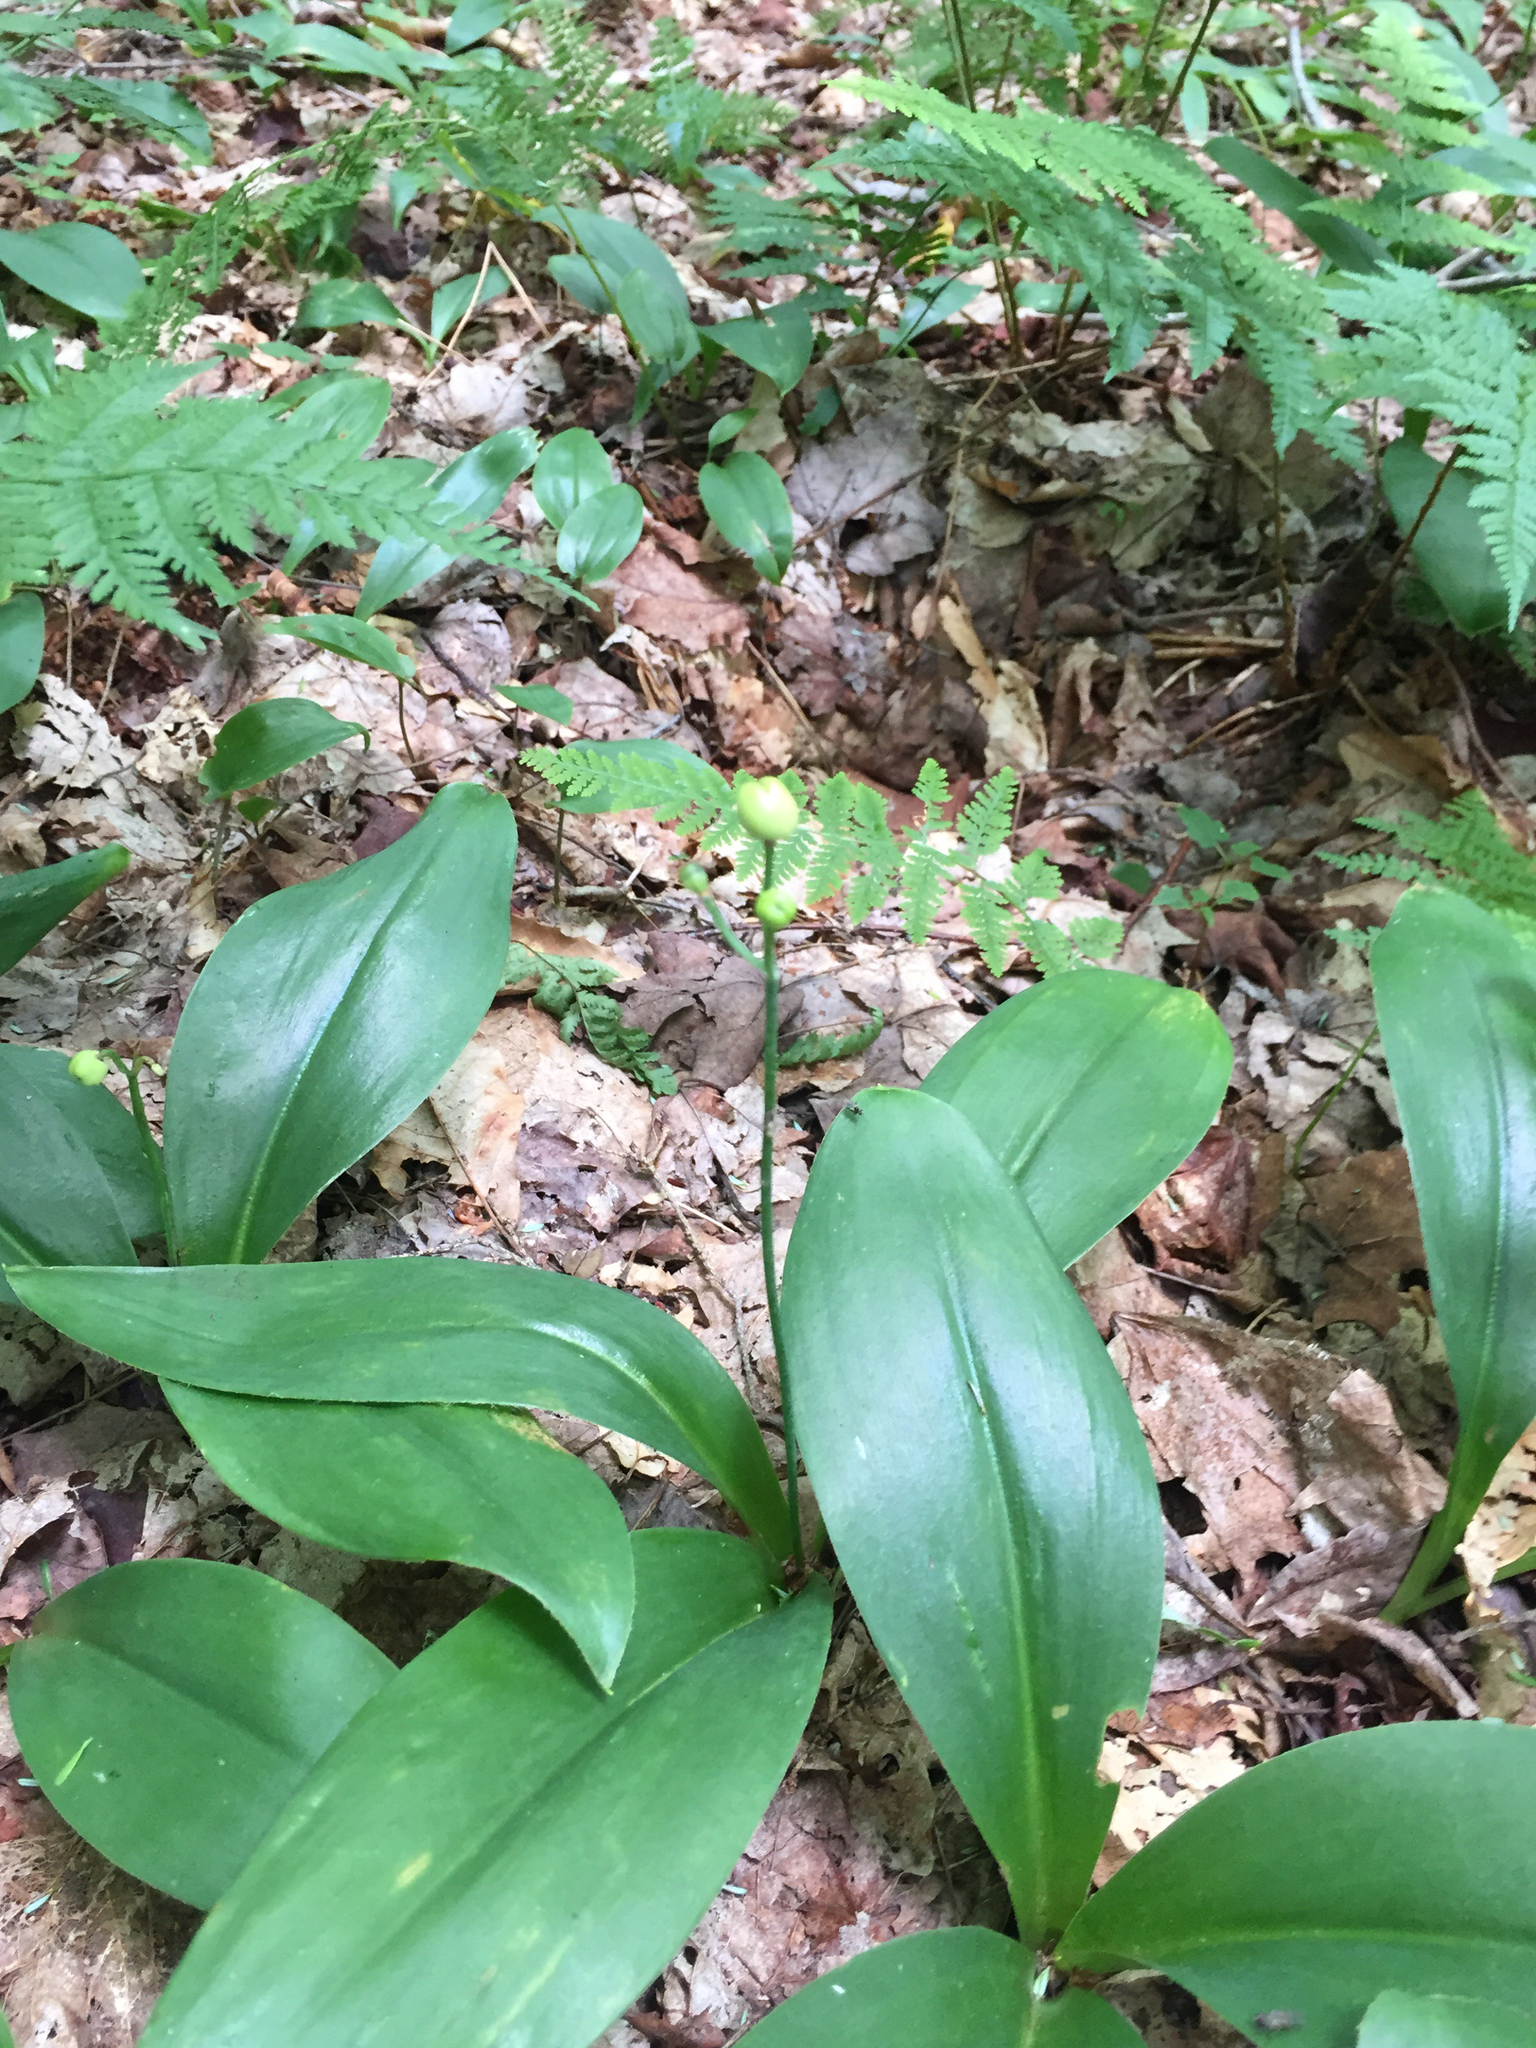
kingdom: Plantae
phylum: Tracheophyta
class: Liliopsida
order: Liliales
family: Liliaceae
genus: Clintonia
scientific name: Clintonia borealis
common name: Yellow clintonia
